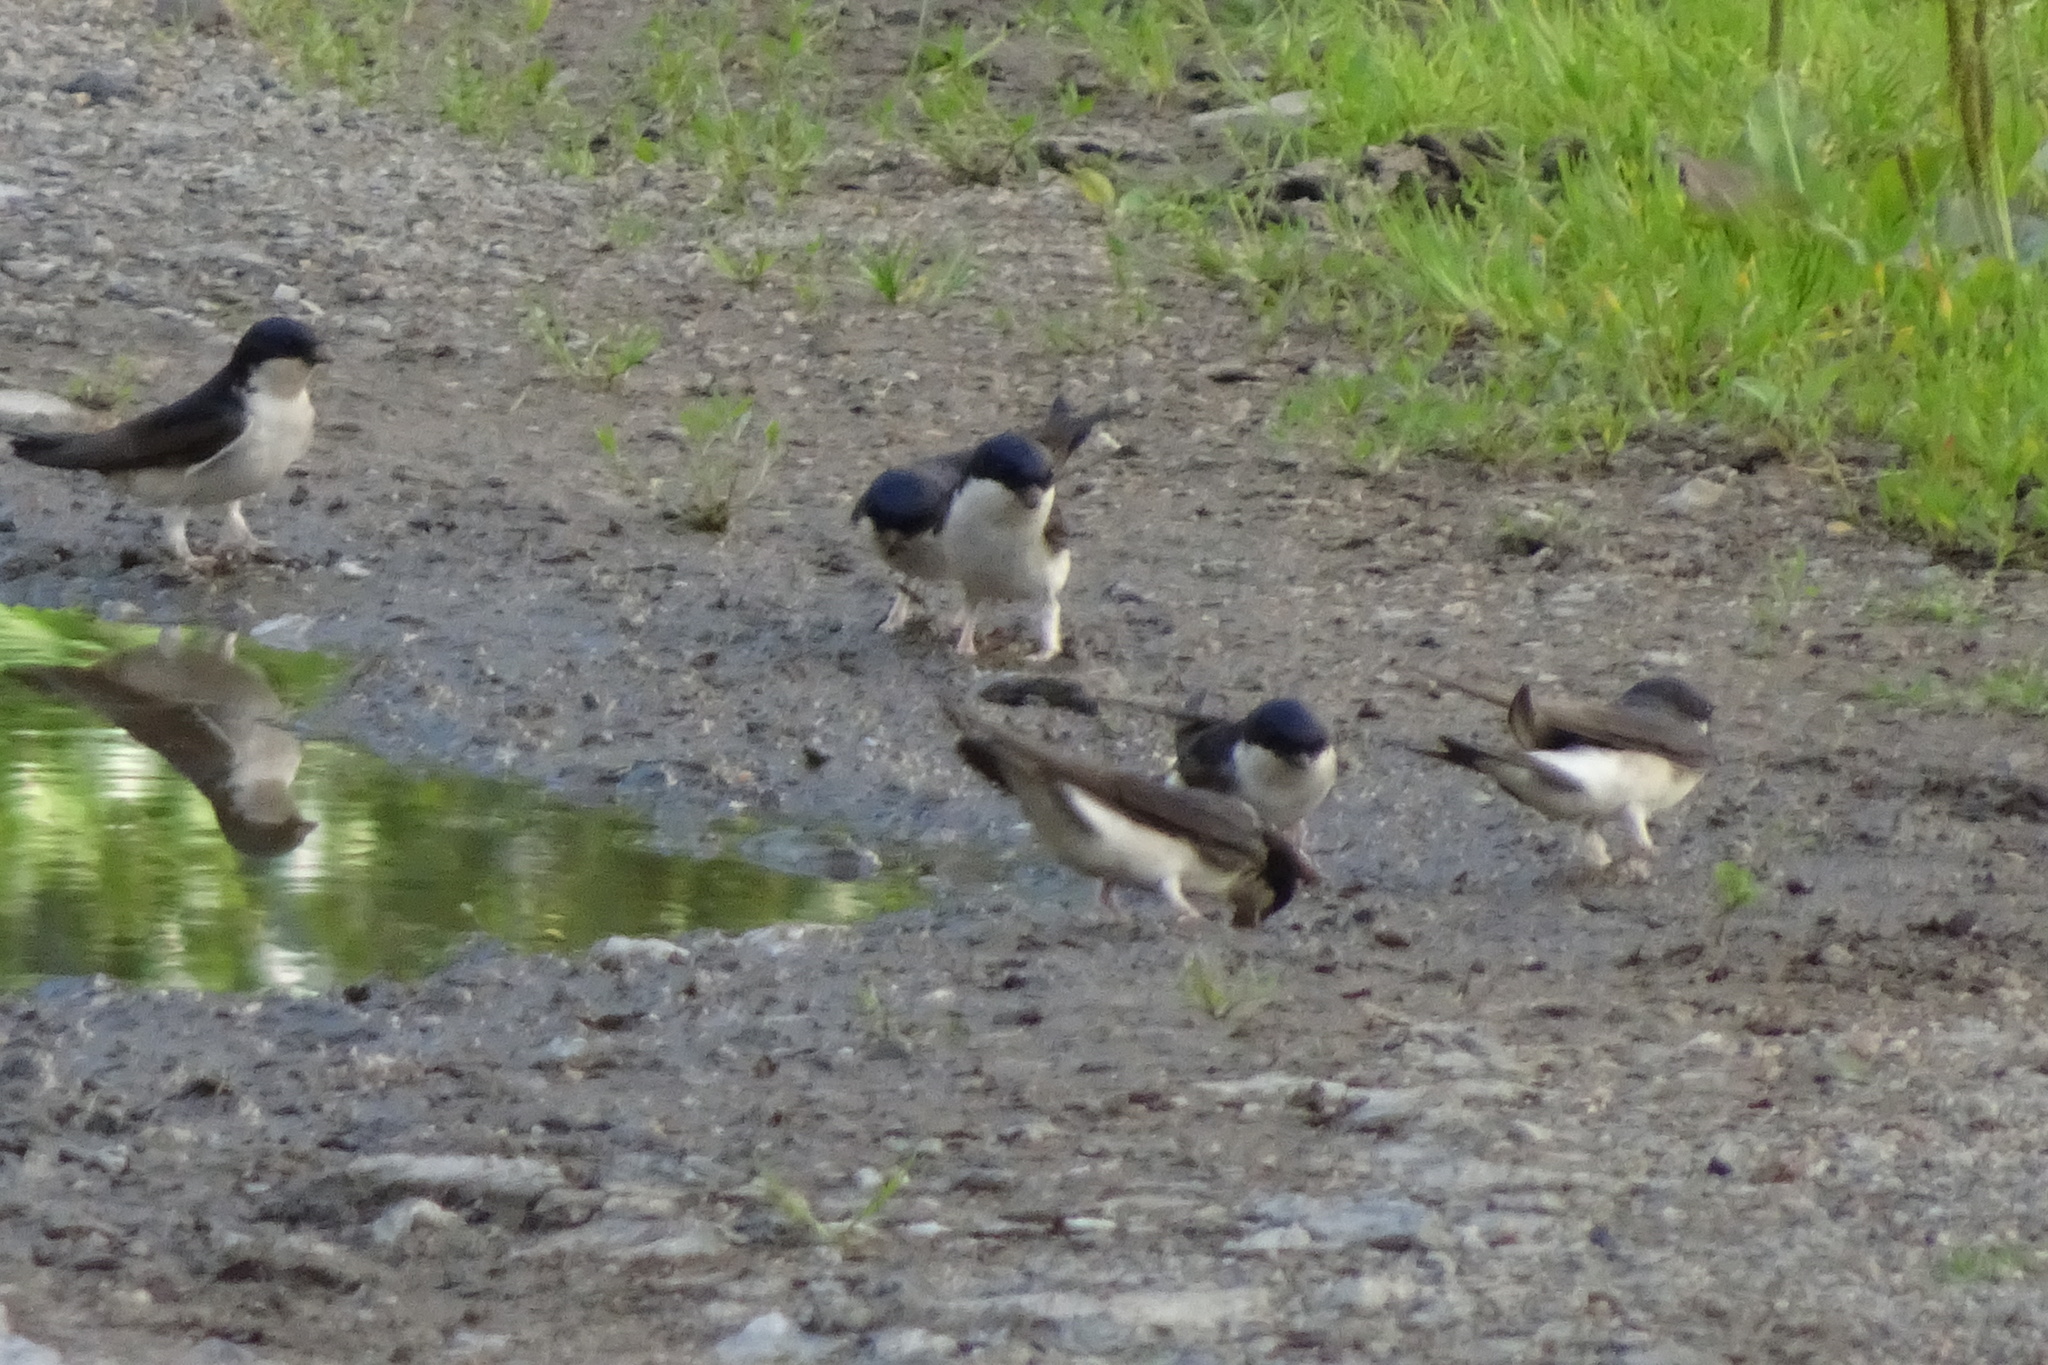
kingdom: Animalia
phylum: Chordata
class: Aves
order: Passeriformes
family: Hirundinidae
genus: Delichon
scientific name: Delichon urbicum
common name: Common house martin
